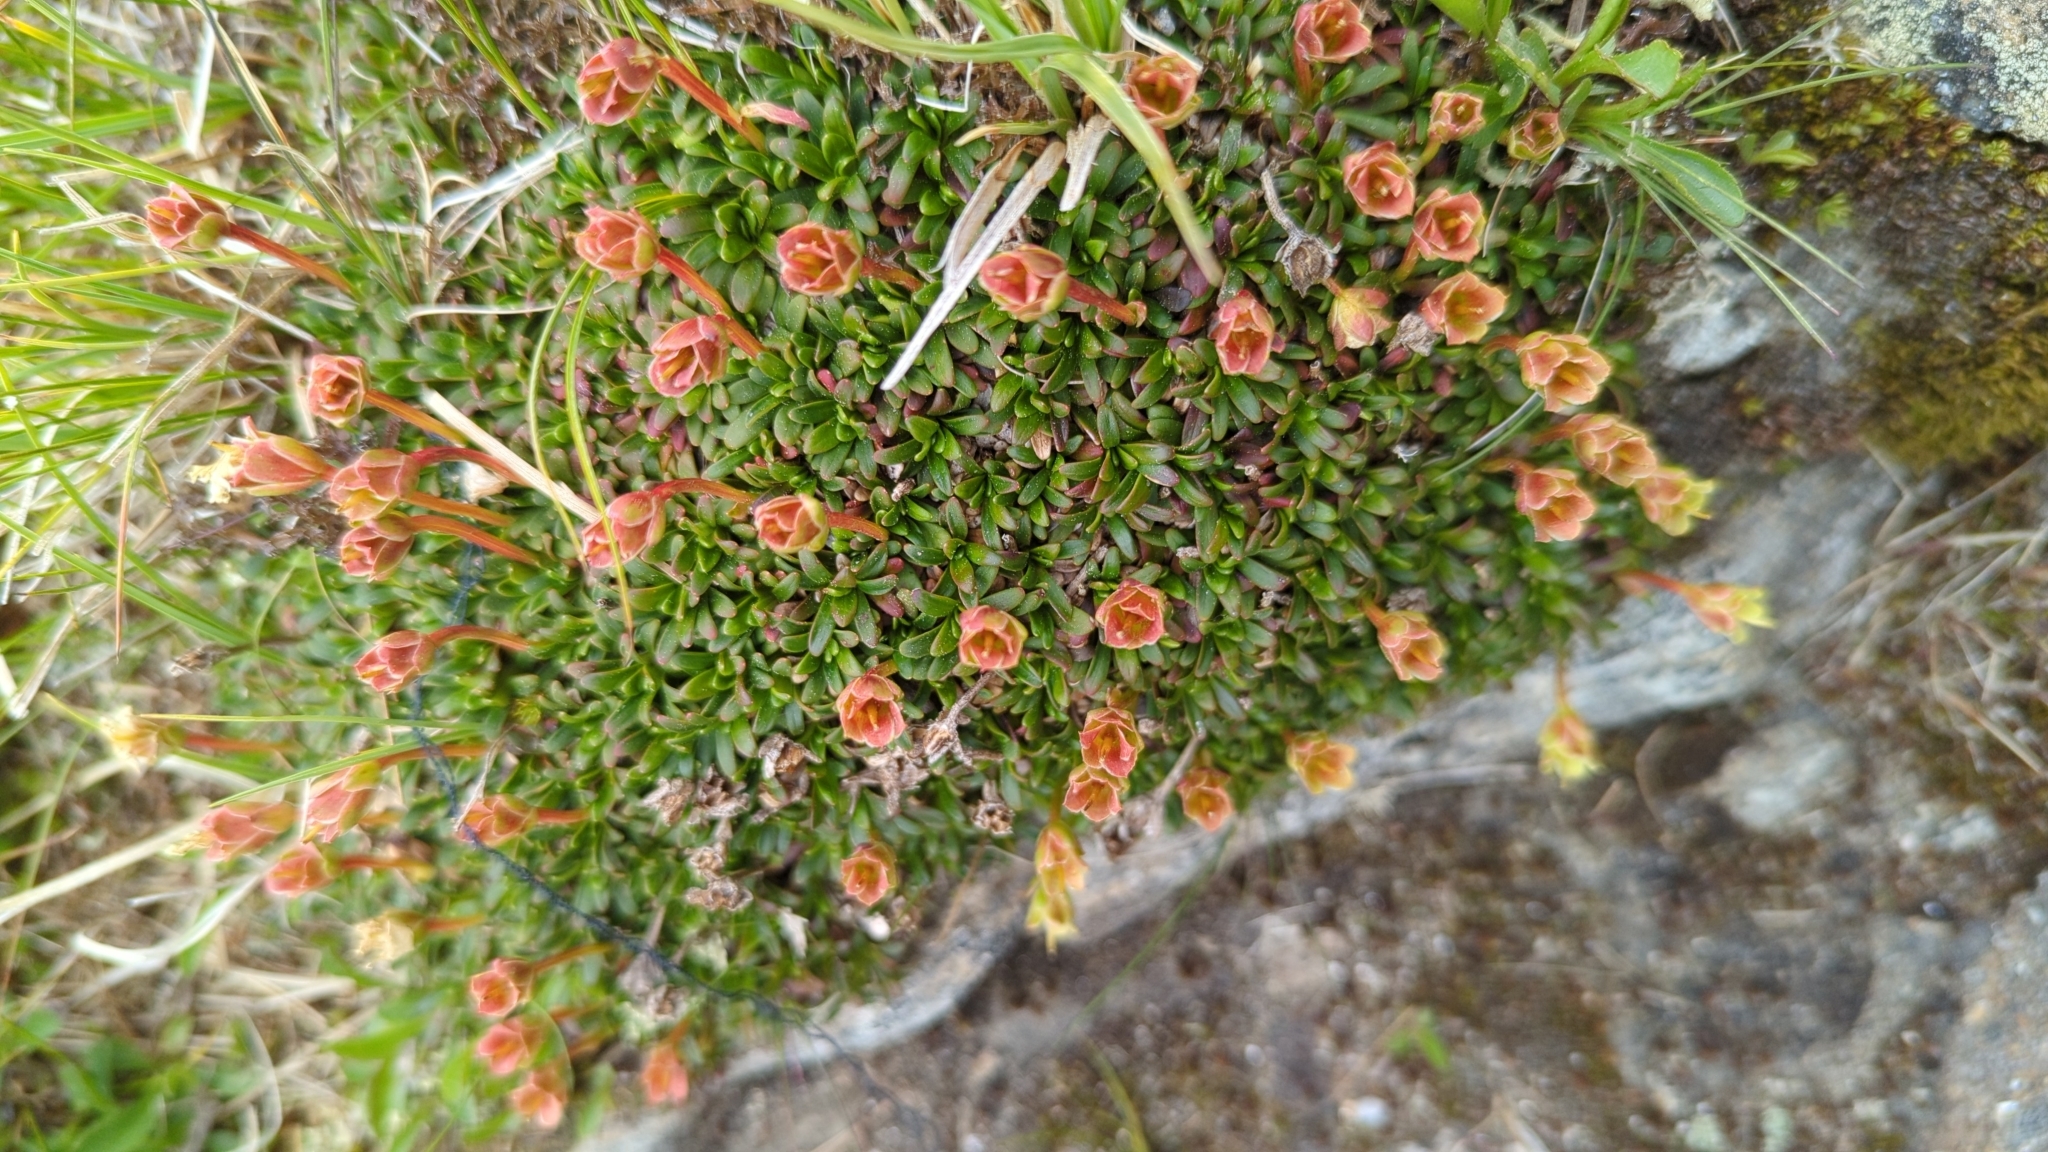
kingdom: Plantae
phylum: Tracheophyta
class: Magnoliopsida
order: Ericales
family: Diapensiaceae
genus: Diapensia
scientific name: Diapensia lapponica
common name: Diapensia
